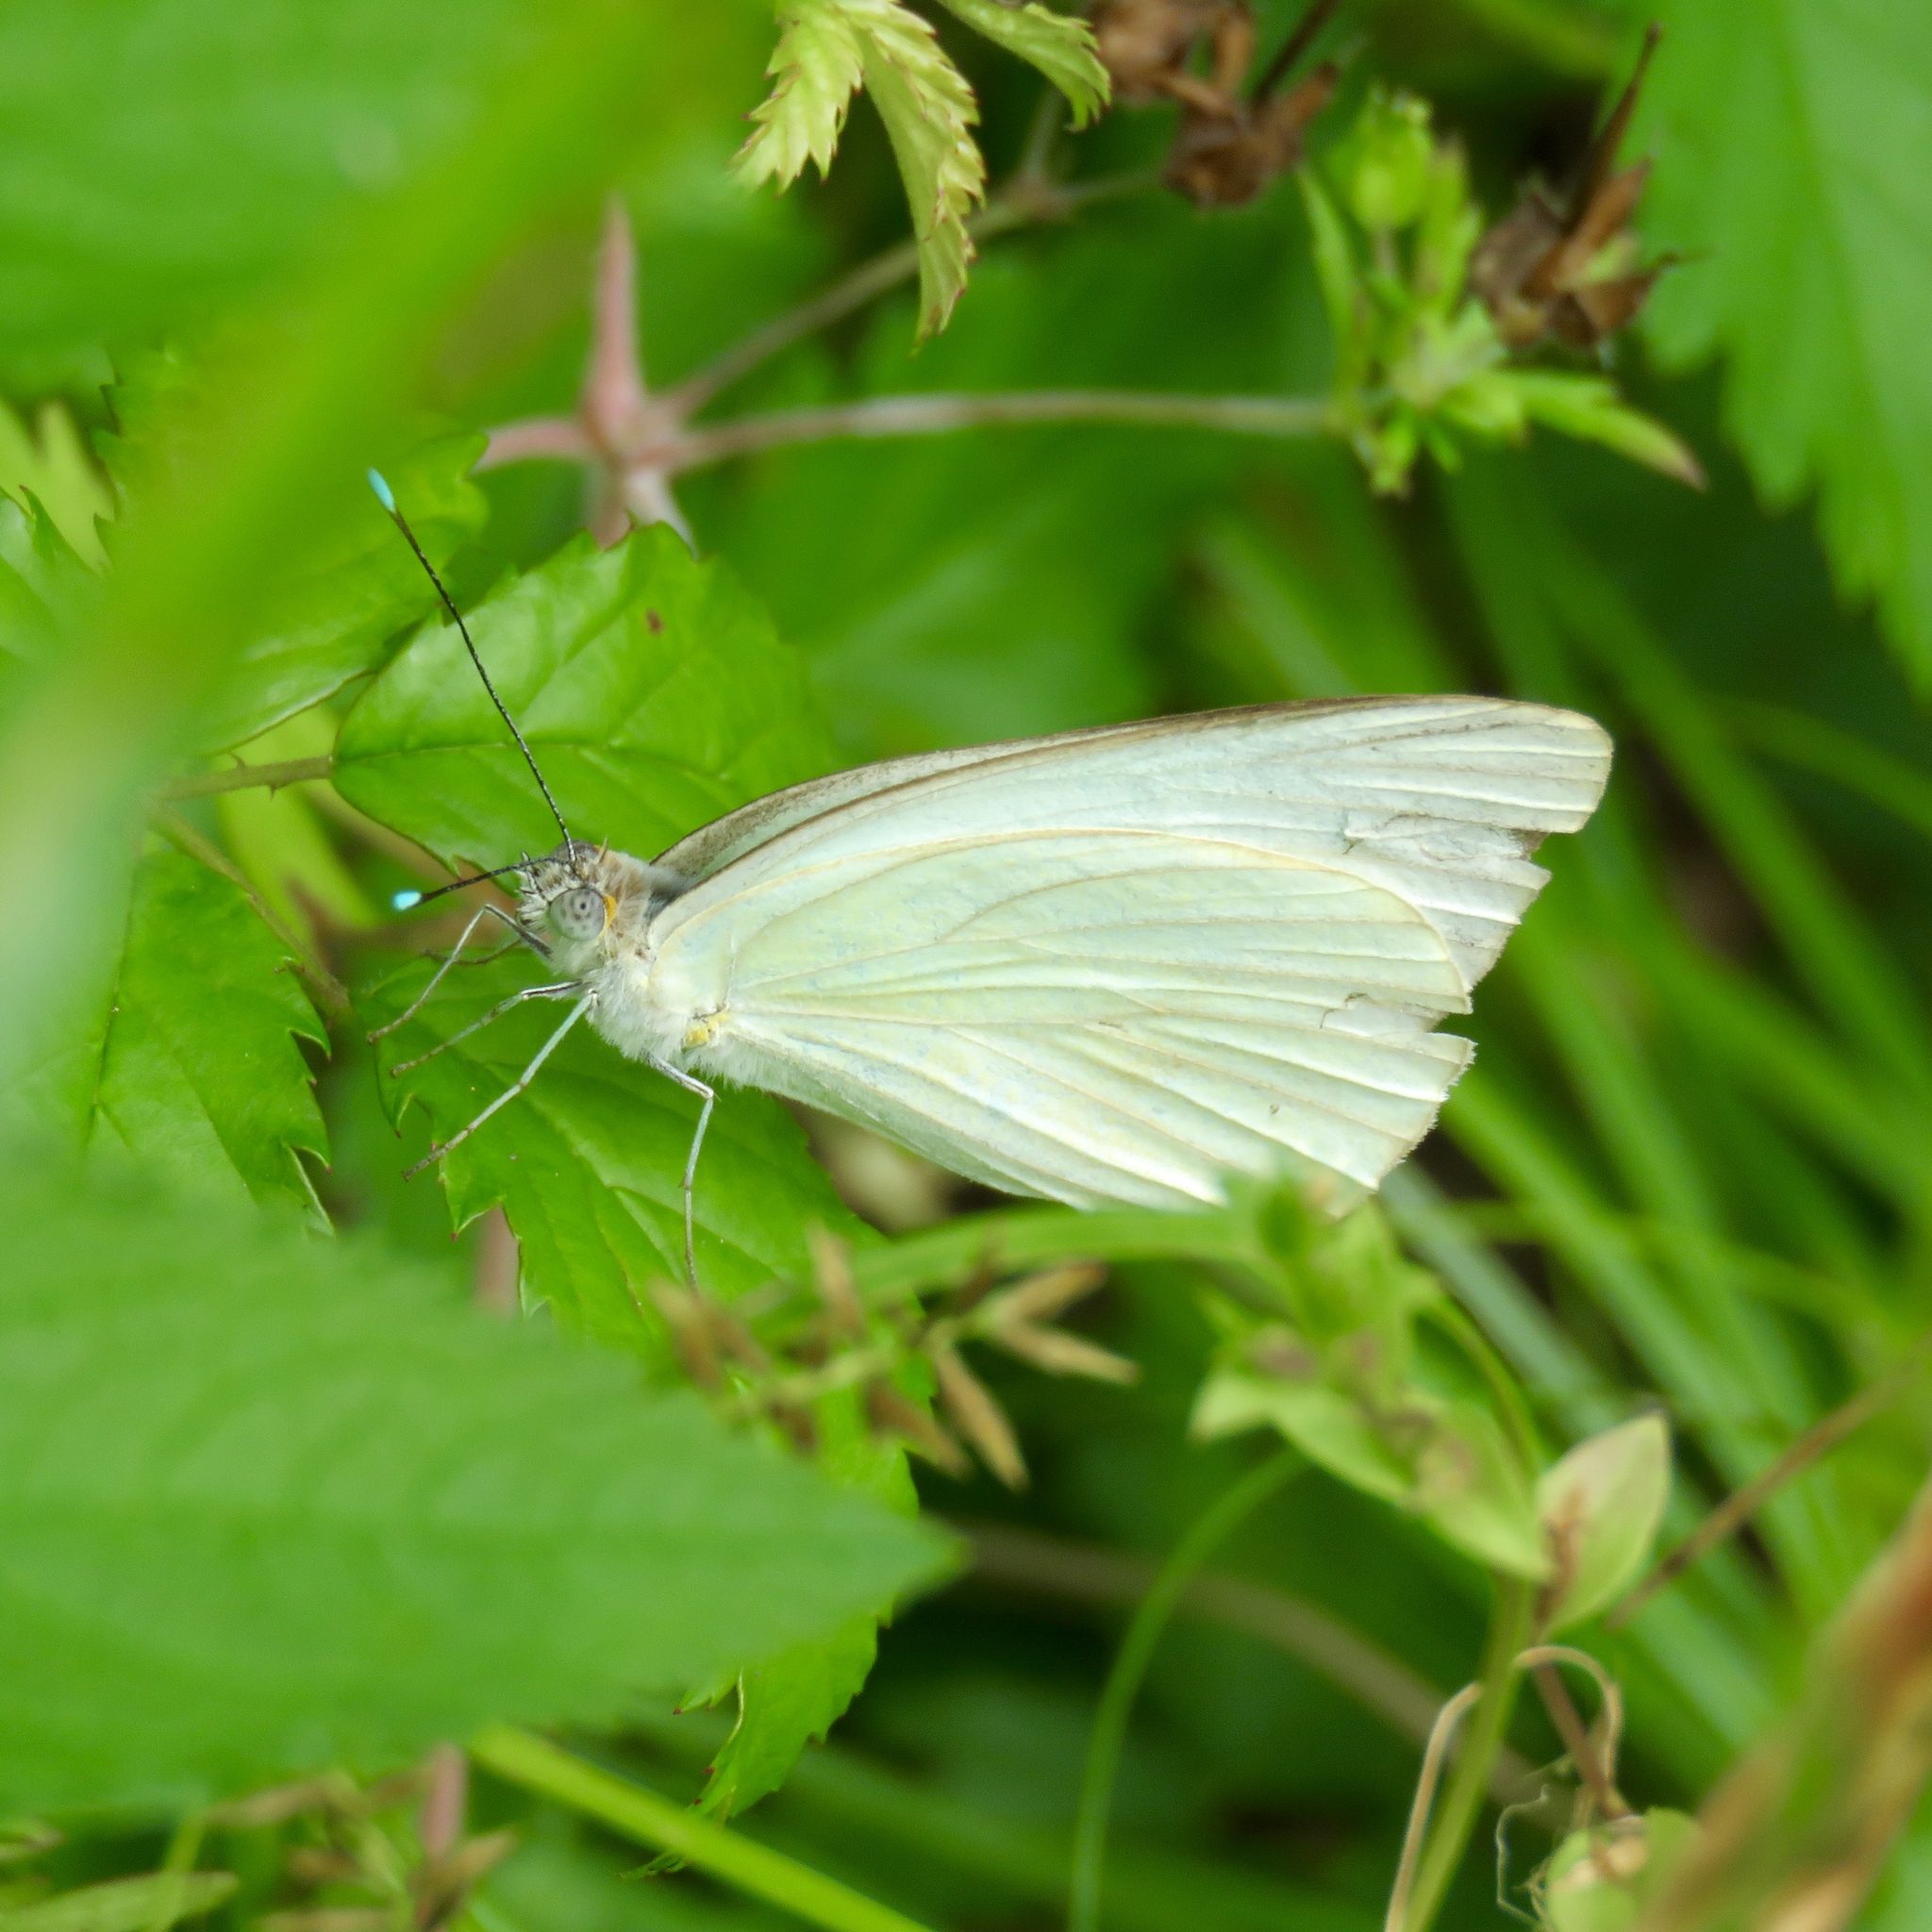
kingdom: Animalia
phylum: Arthropoda
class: Insecta
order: Lepidoptera
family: Pieridae
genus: Ascia
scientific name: Ascia monuste
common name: Great southern white
